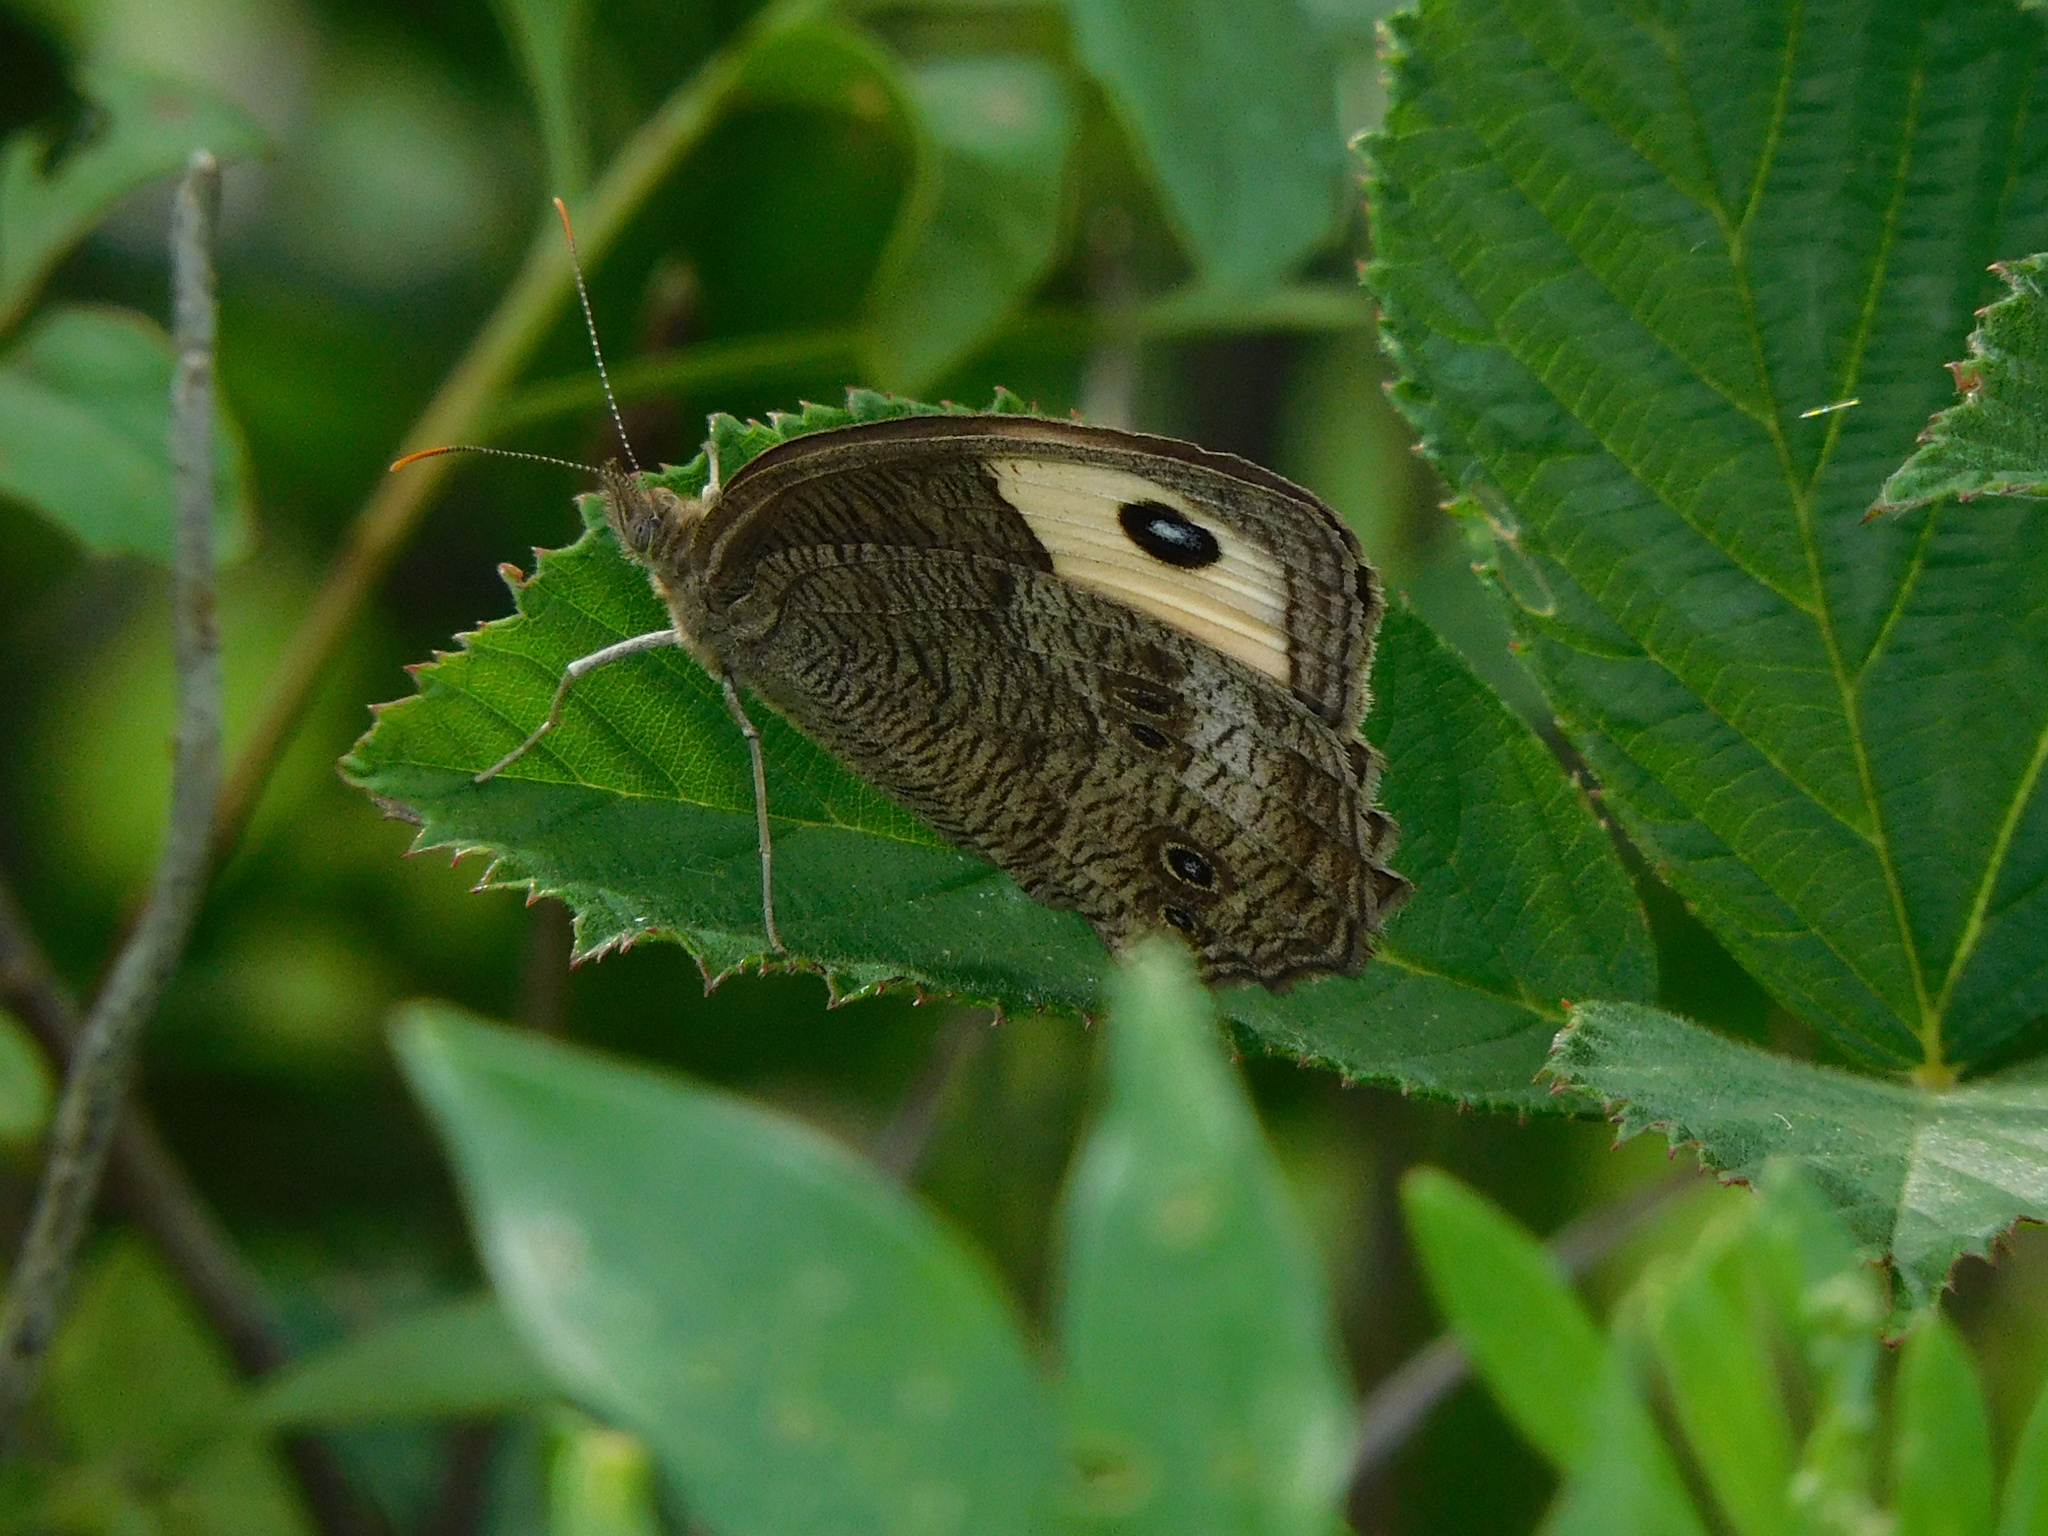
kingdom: Animalia
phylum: Arthropoda
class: Insecta
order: Lepidoptera
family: Nymphalidae
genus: Cercyonis
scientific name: Cercyonis pegala
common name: Common wood-nymph
